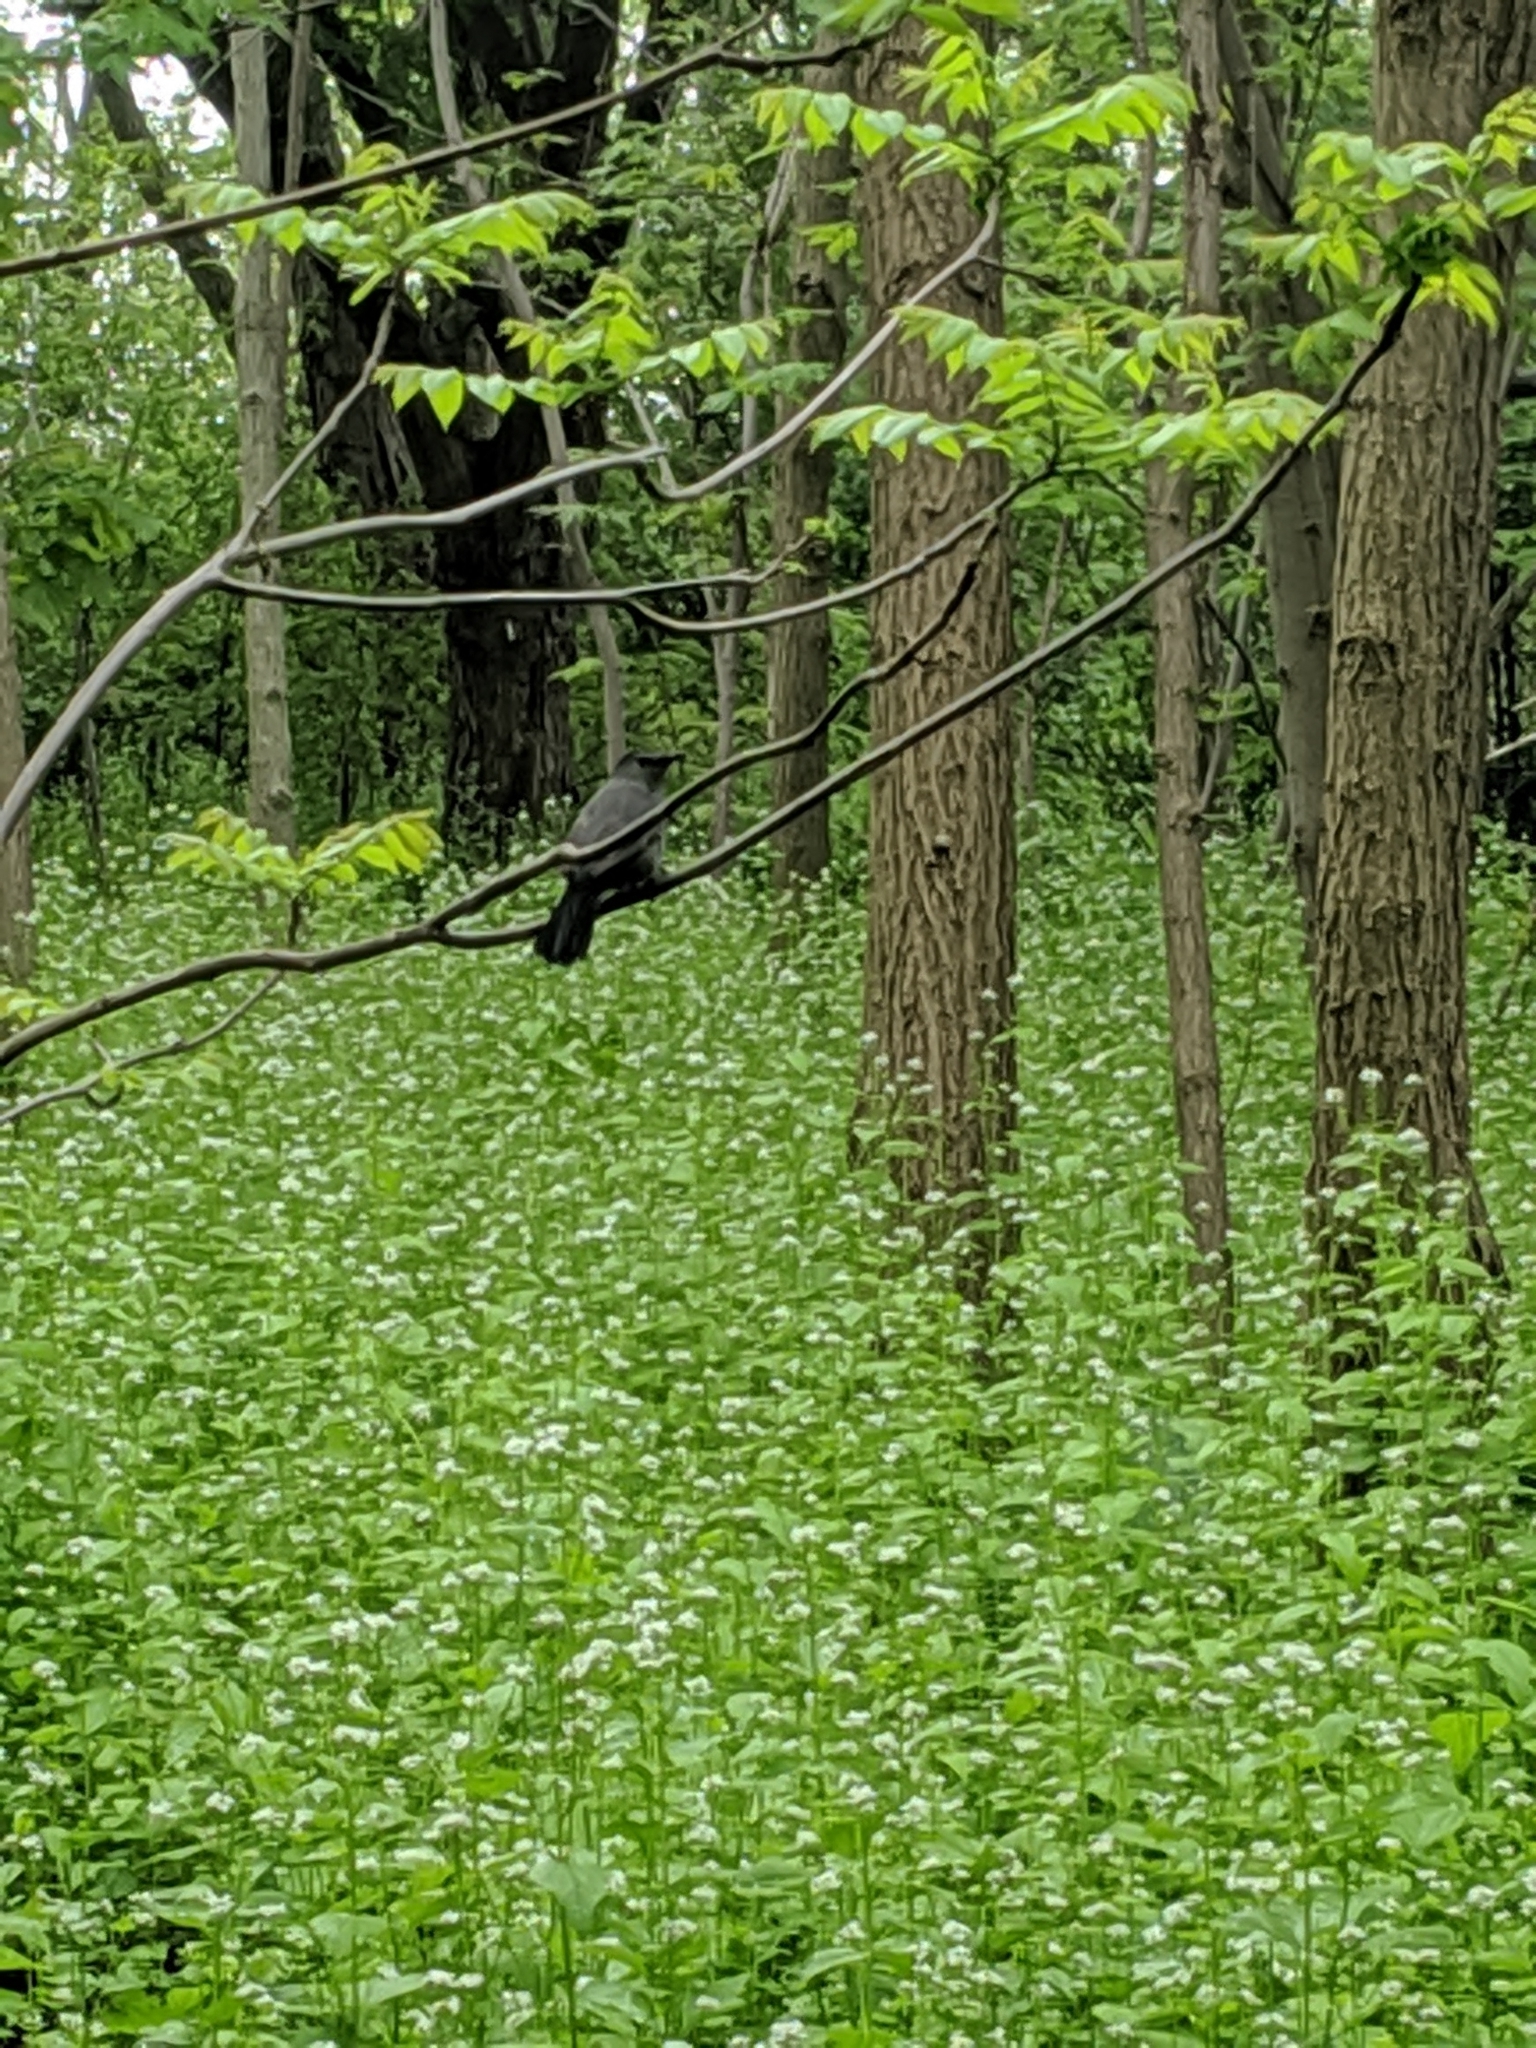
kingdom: Animalia
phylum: Chordata
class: Aves
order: Passeriformes
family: Mimidae
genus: Dumetella
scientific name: Dumetella carolinensis
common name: Gray catbird
